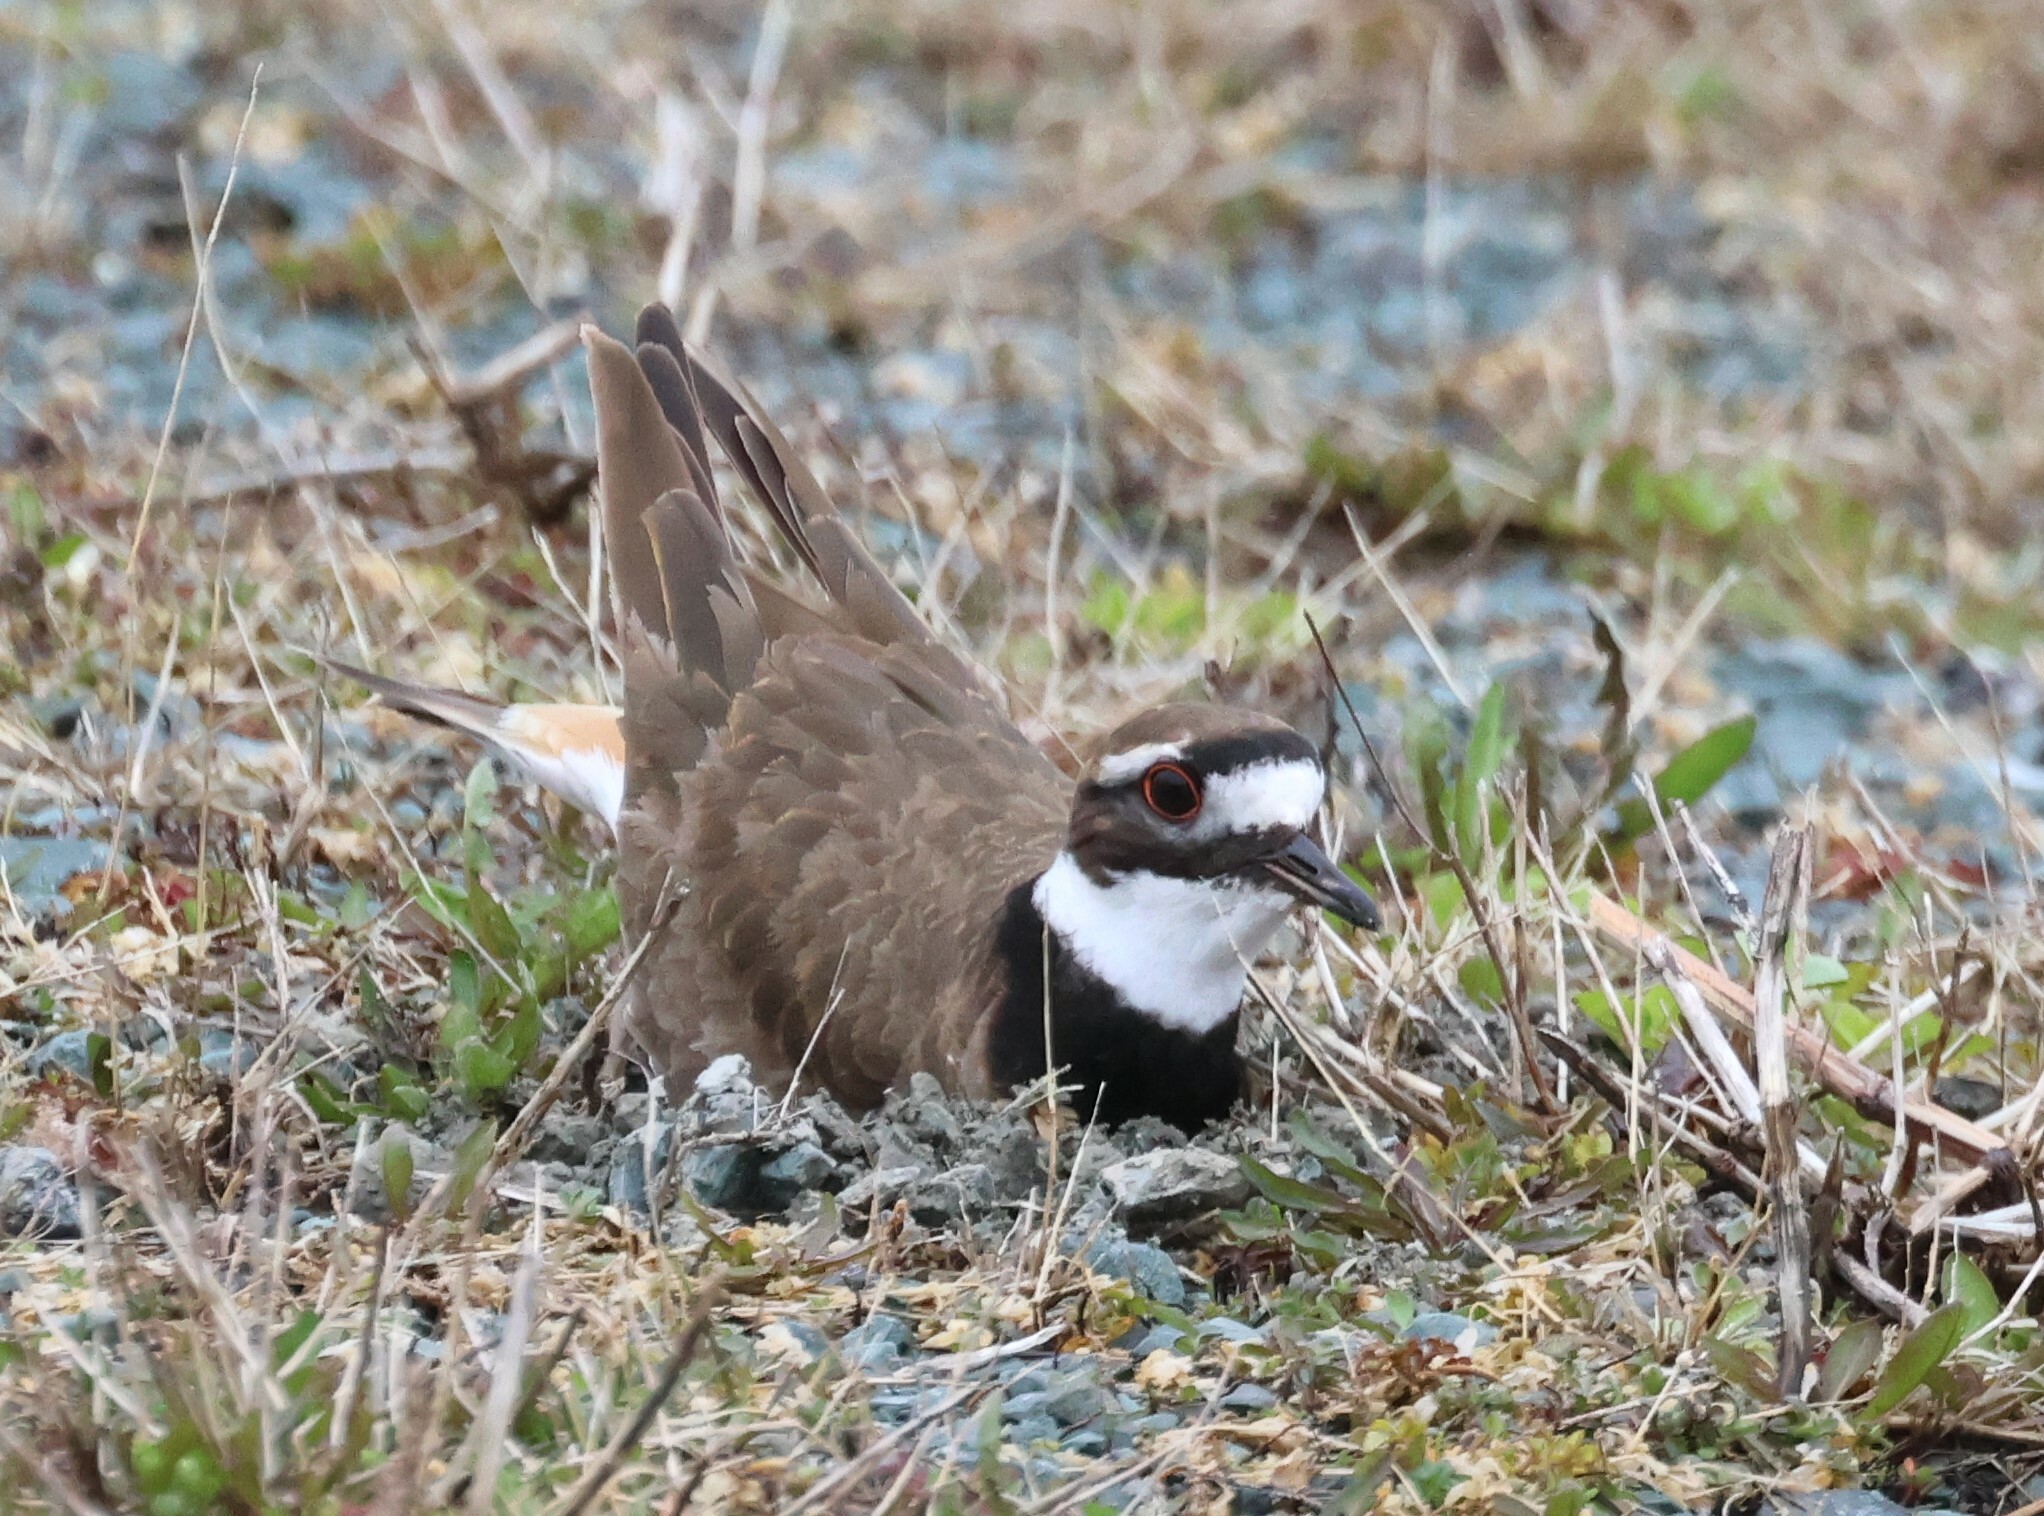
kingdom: Animalia
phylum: Chordata
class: Aves
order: Charadriiformes
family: Charadriidae
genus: Charadrius
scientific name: Charadrius vociferus
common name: Killdeer
